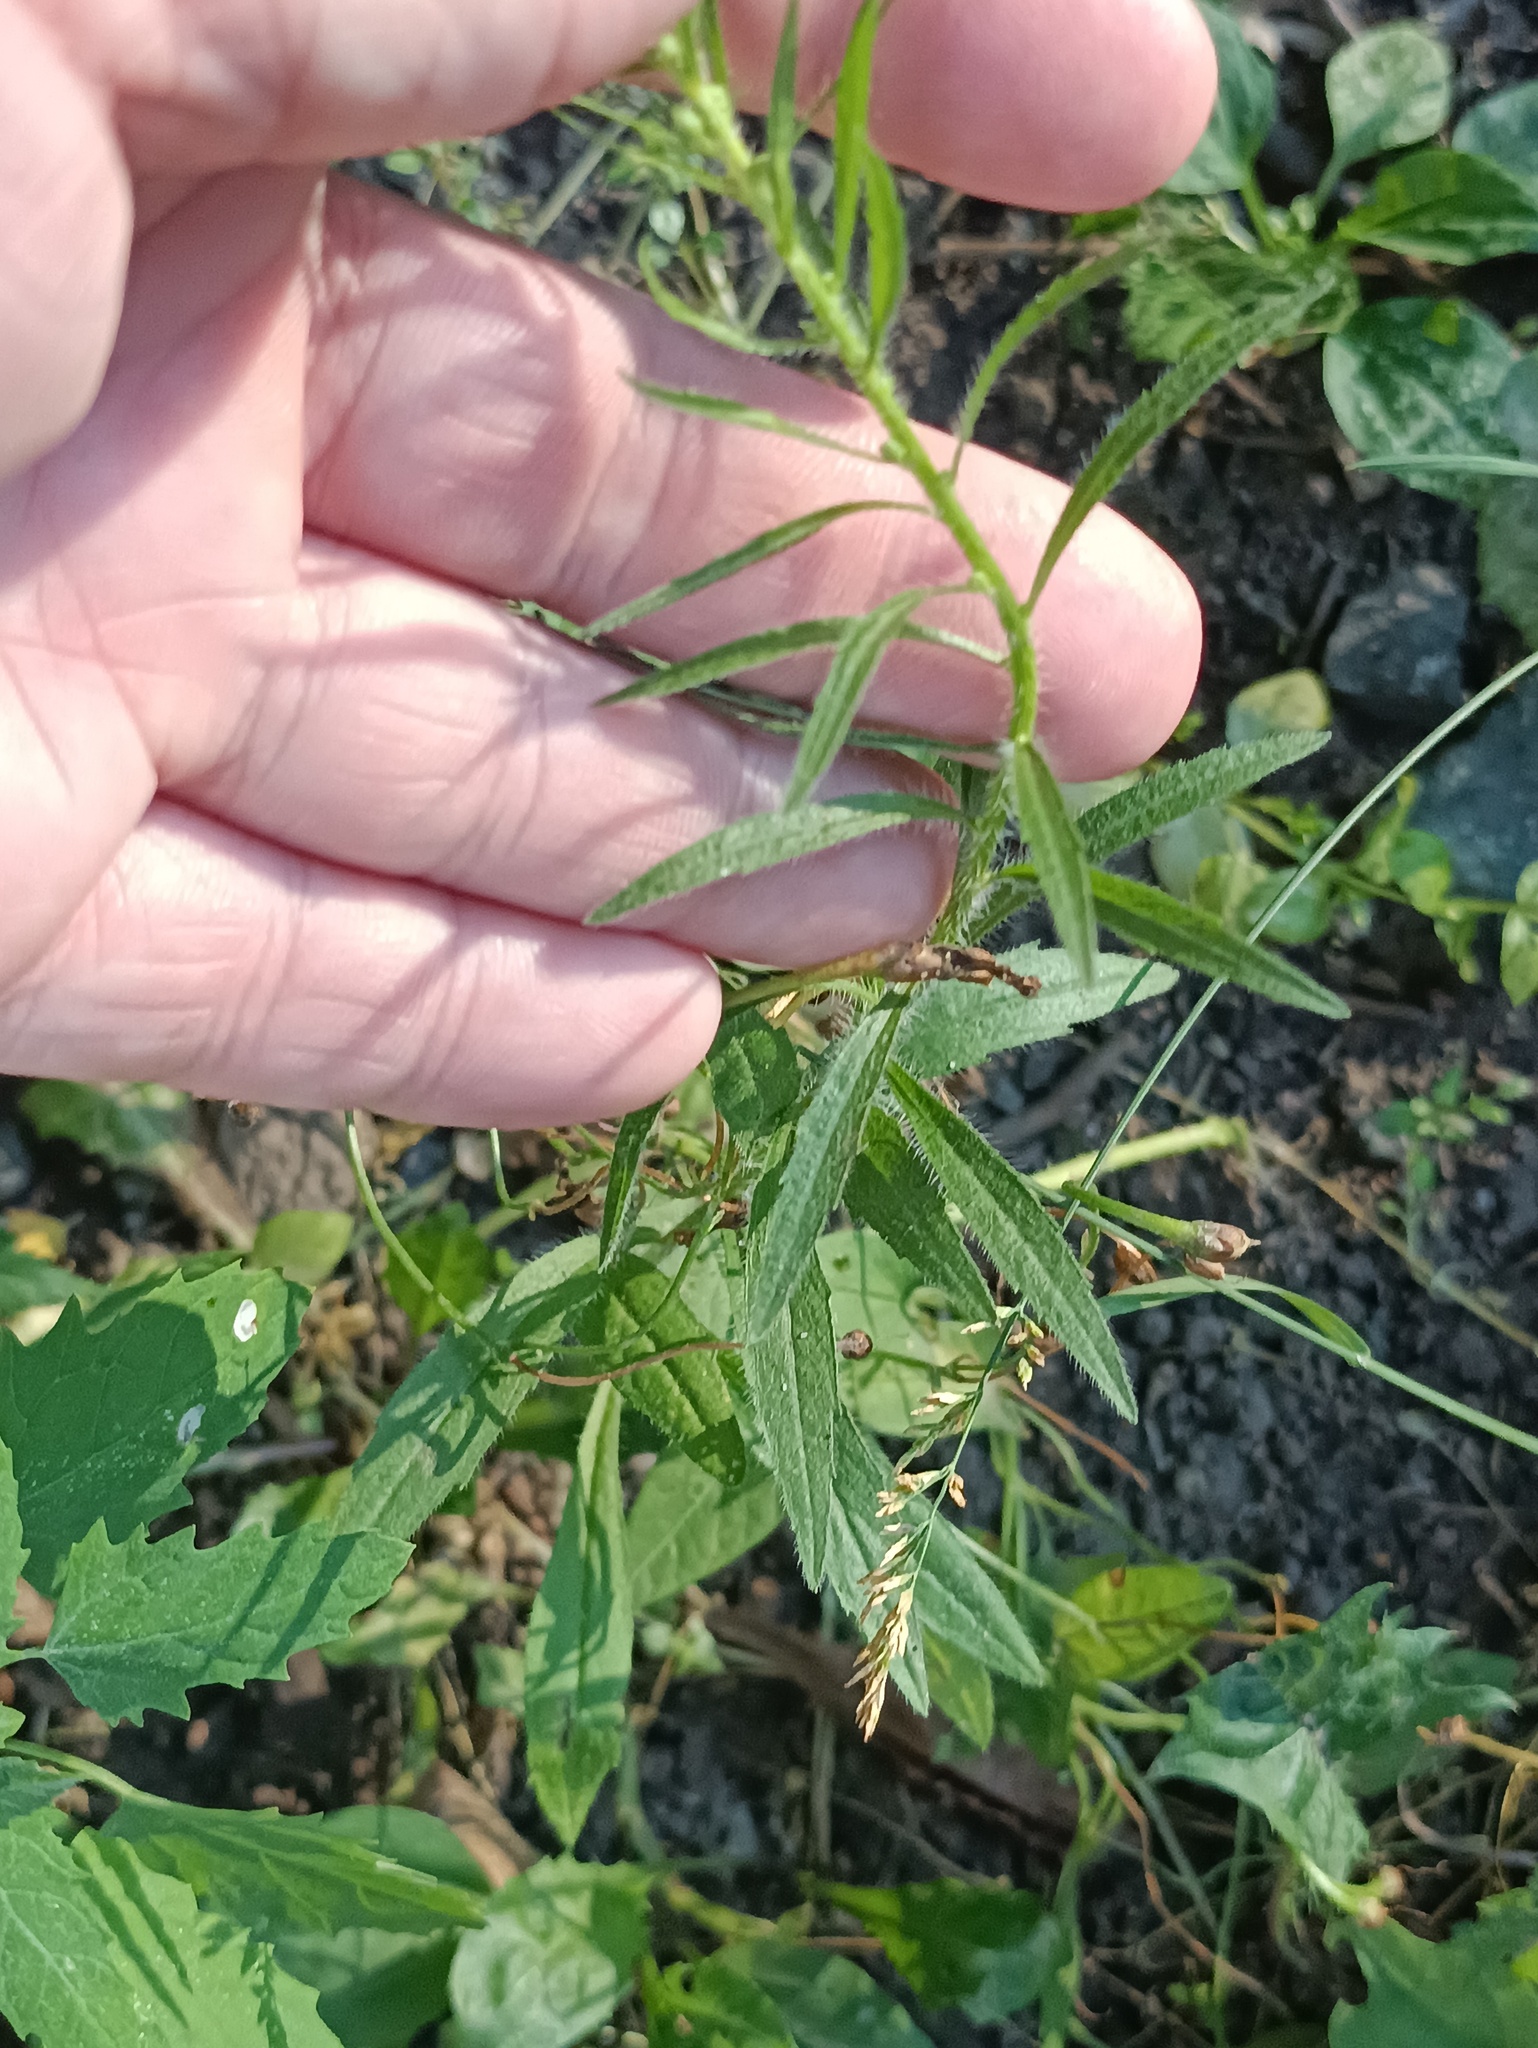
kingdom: Plantae
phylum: Tracheophyta
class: Magnoliopsida
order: Asterales
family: Asteraceae
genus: Erigeron
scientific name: Erigeron canadensis
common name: Canadian fleabane
